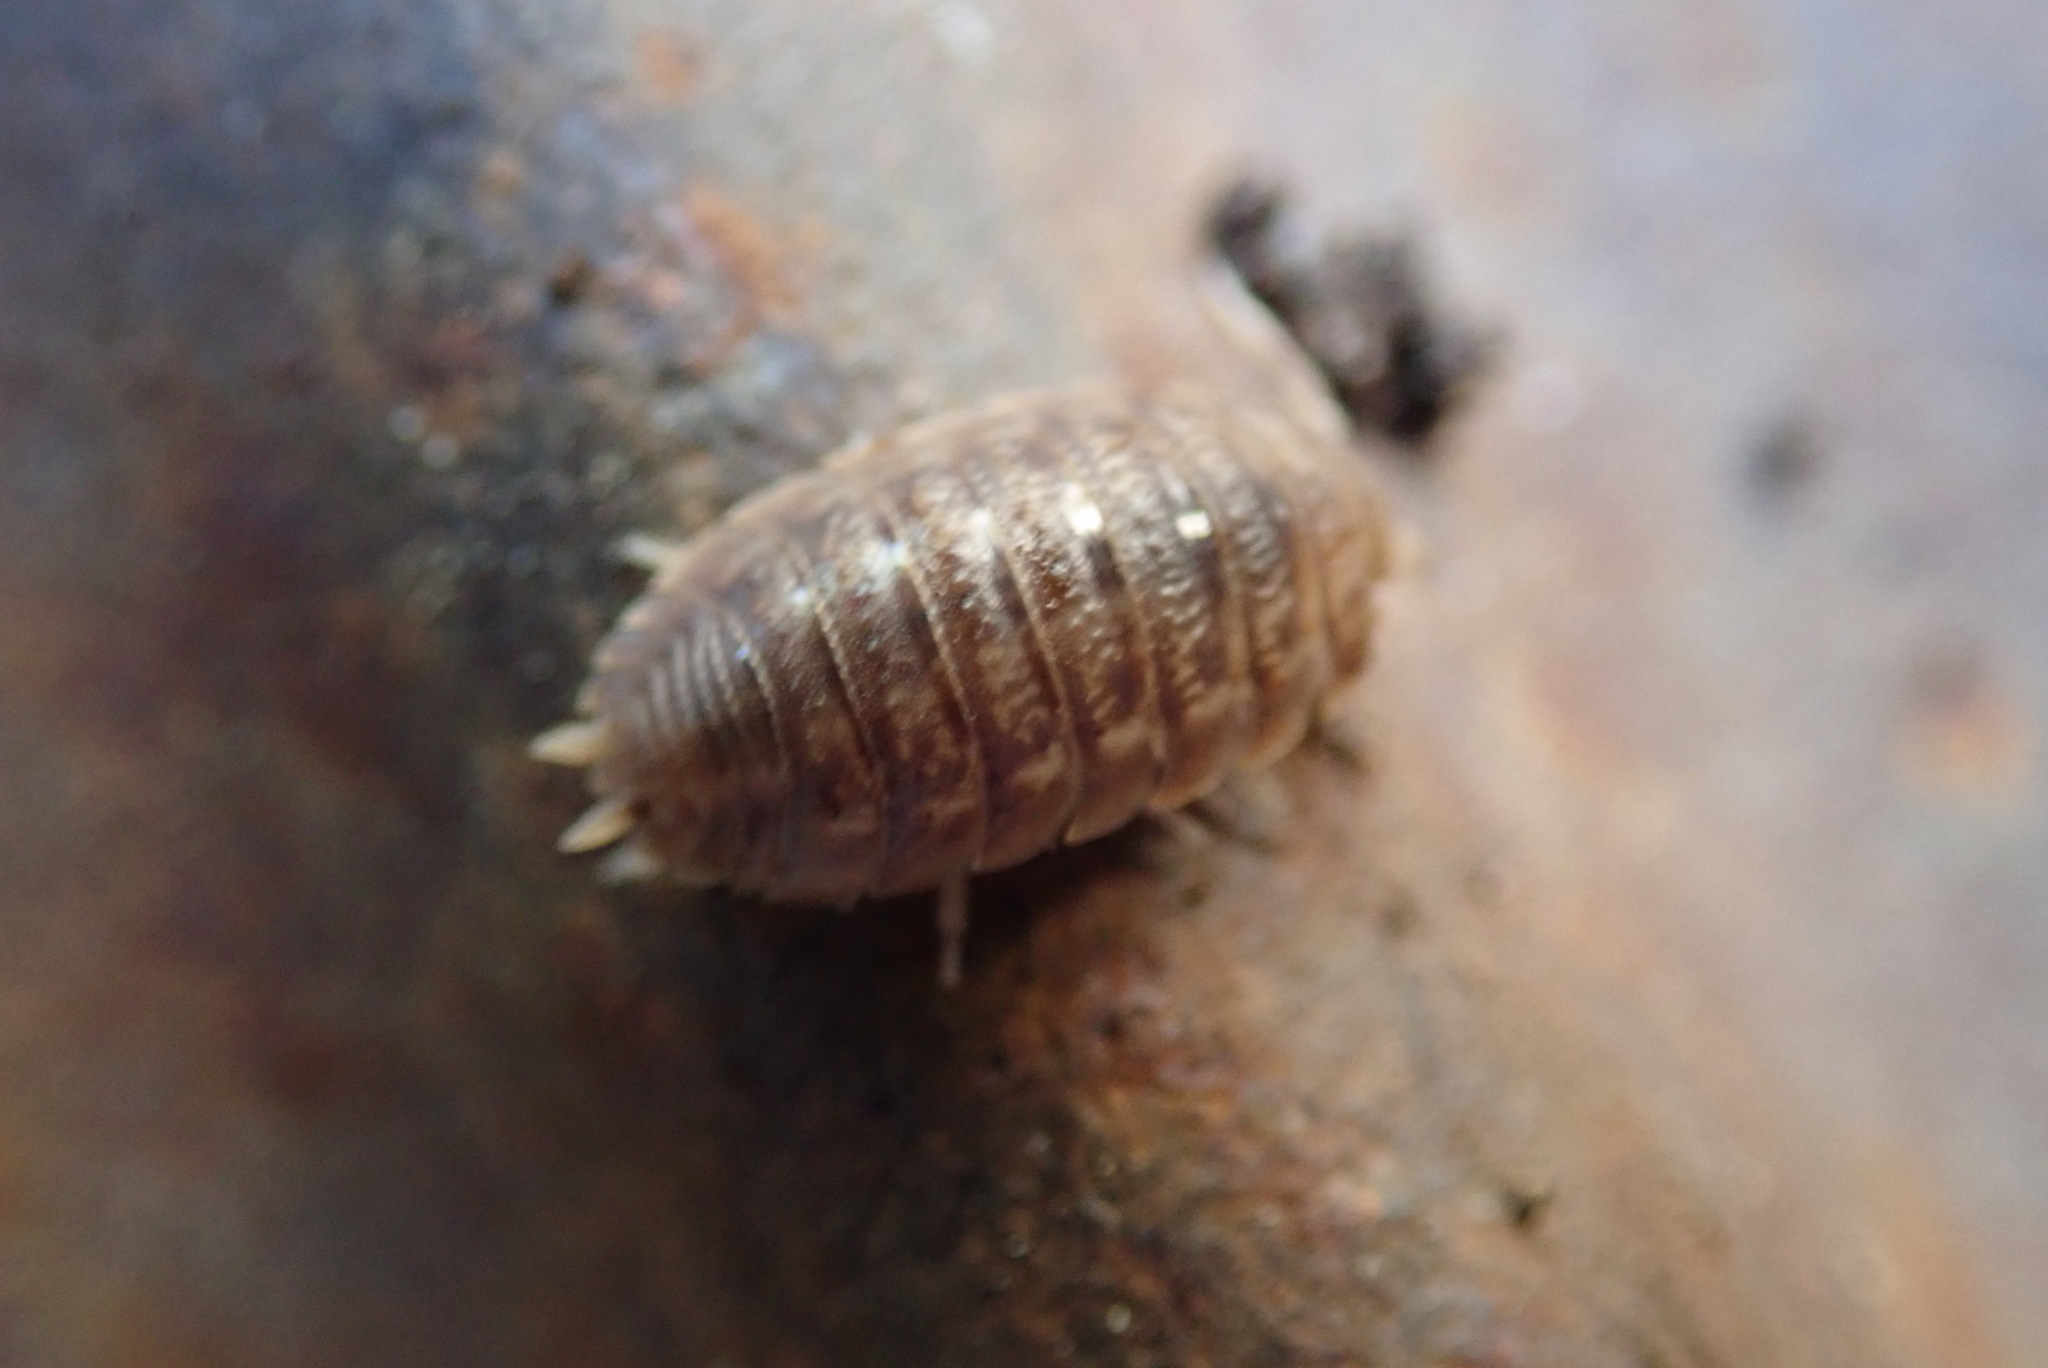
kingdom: Animalia
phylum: Arthropoda
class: Malacostraca
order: Isopoda
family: Porcellionidae
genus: Porcellio
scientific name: Porcellio dilatatus
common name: Isopod
